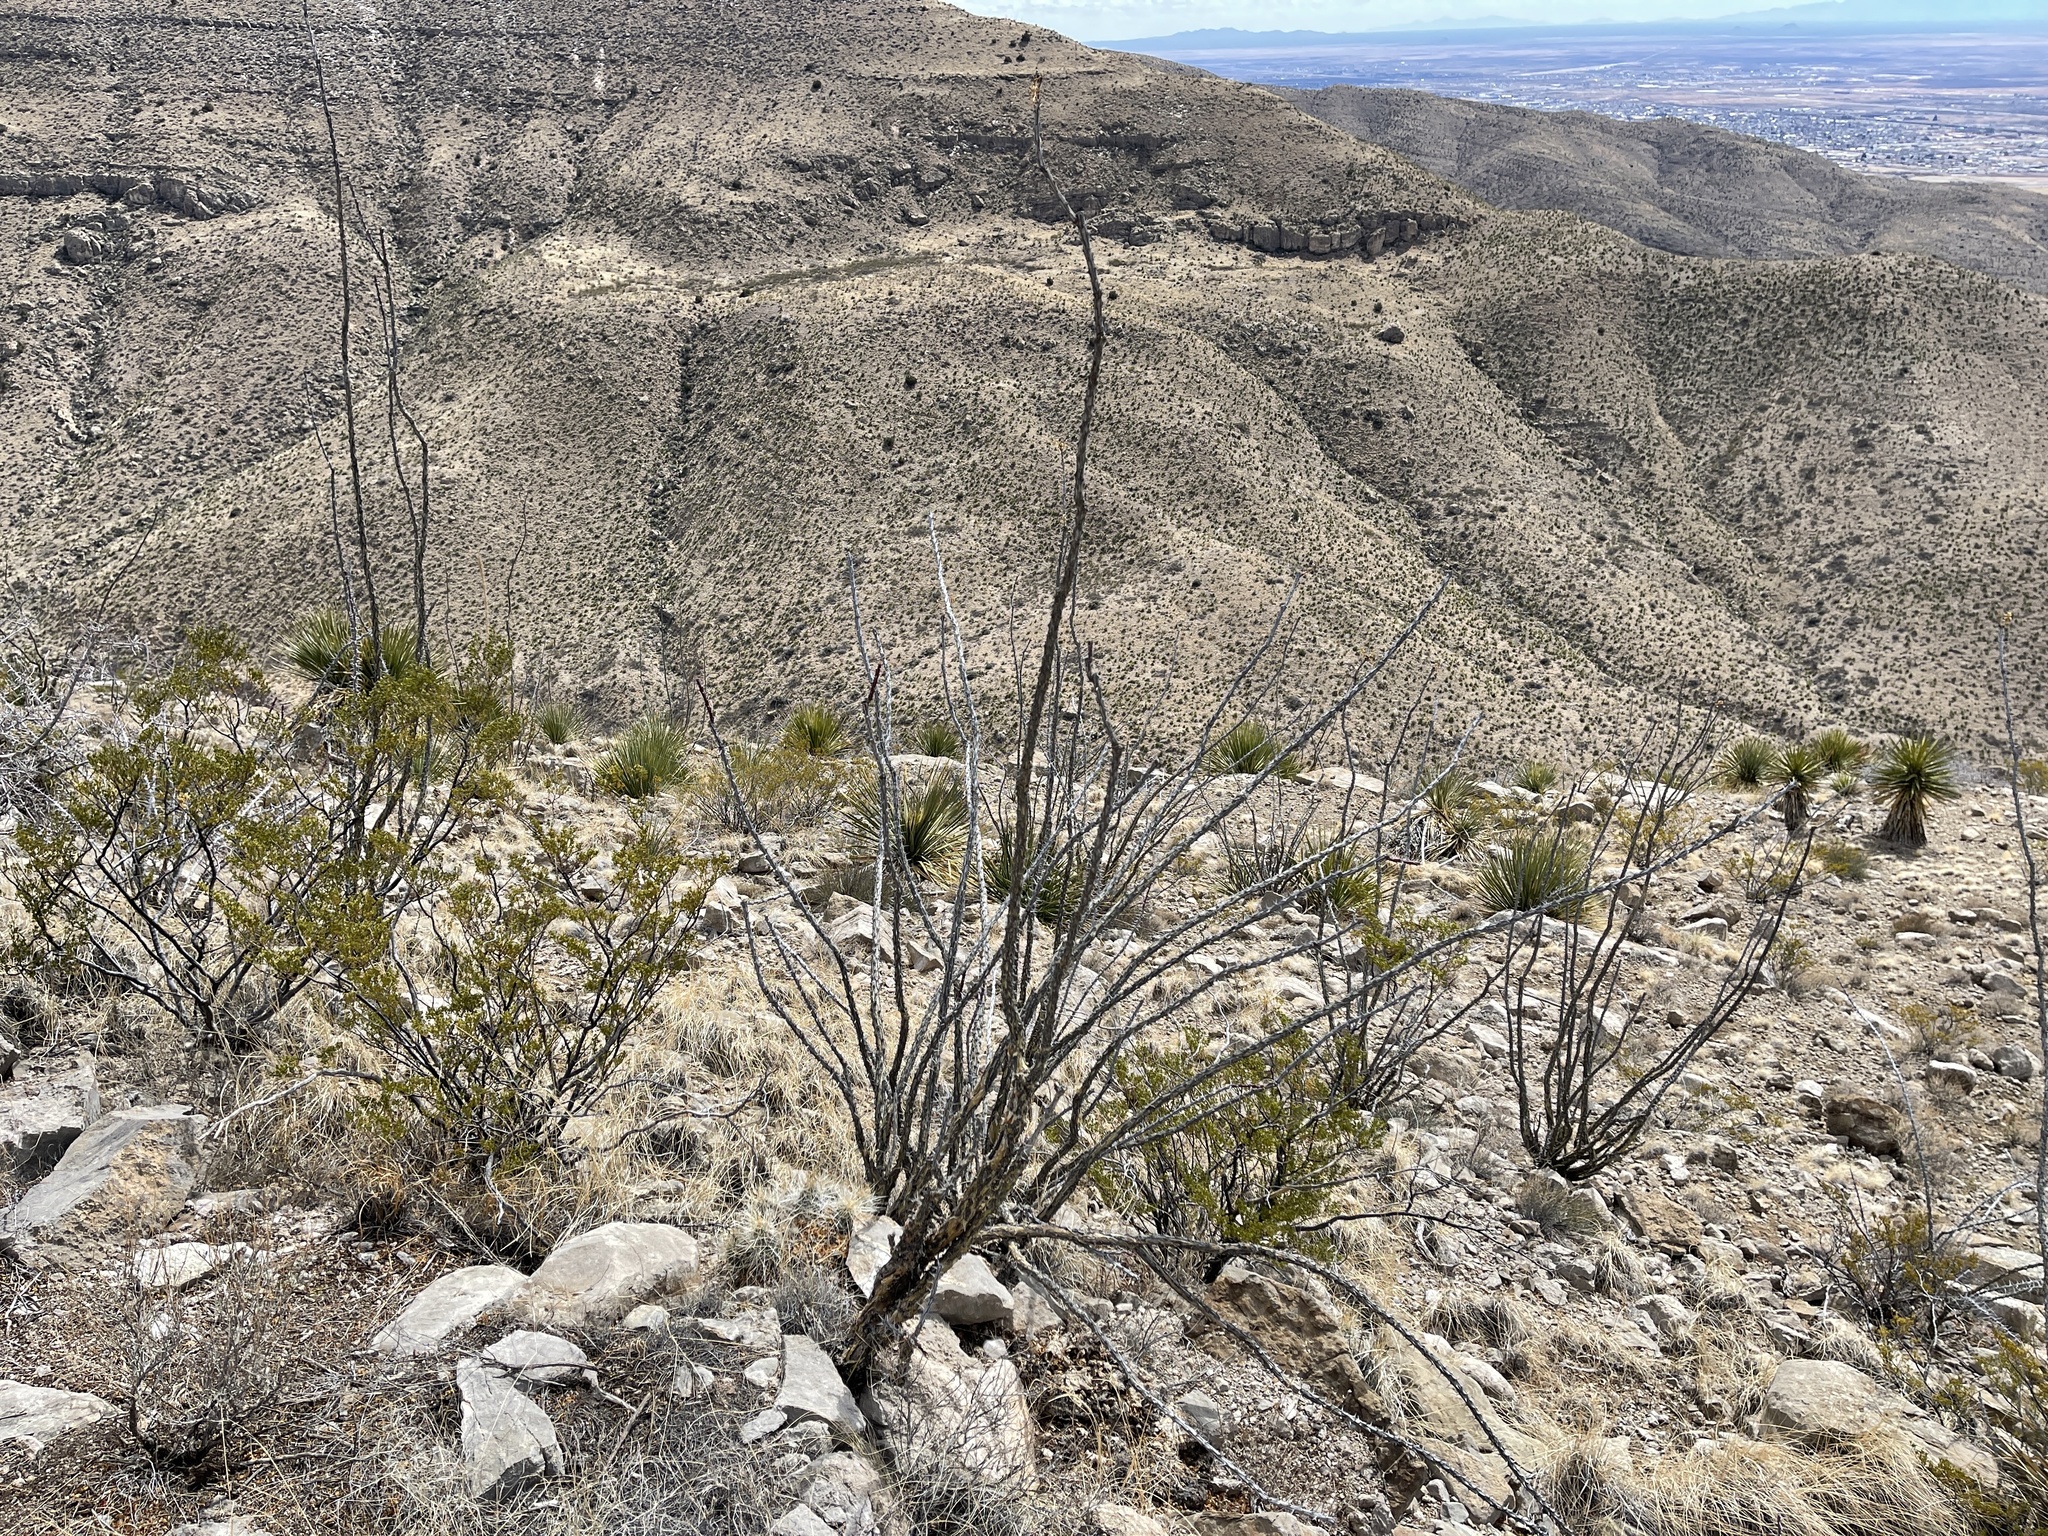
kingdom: Plantae
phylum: Tracheophyta
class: Magnoliopsida
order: Ericales
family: Fouquieriaceae
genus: Fouquieria
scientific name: Fouquieria splendens
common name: Vine-cactus
